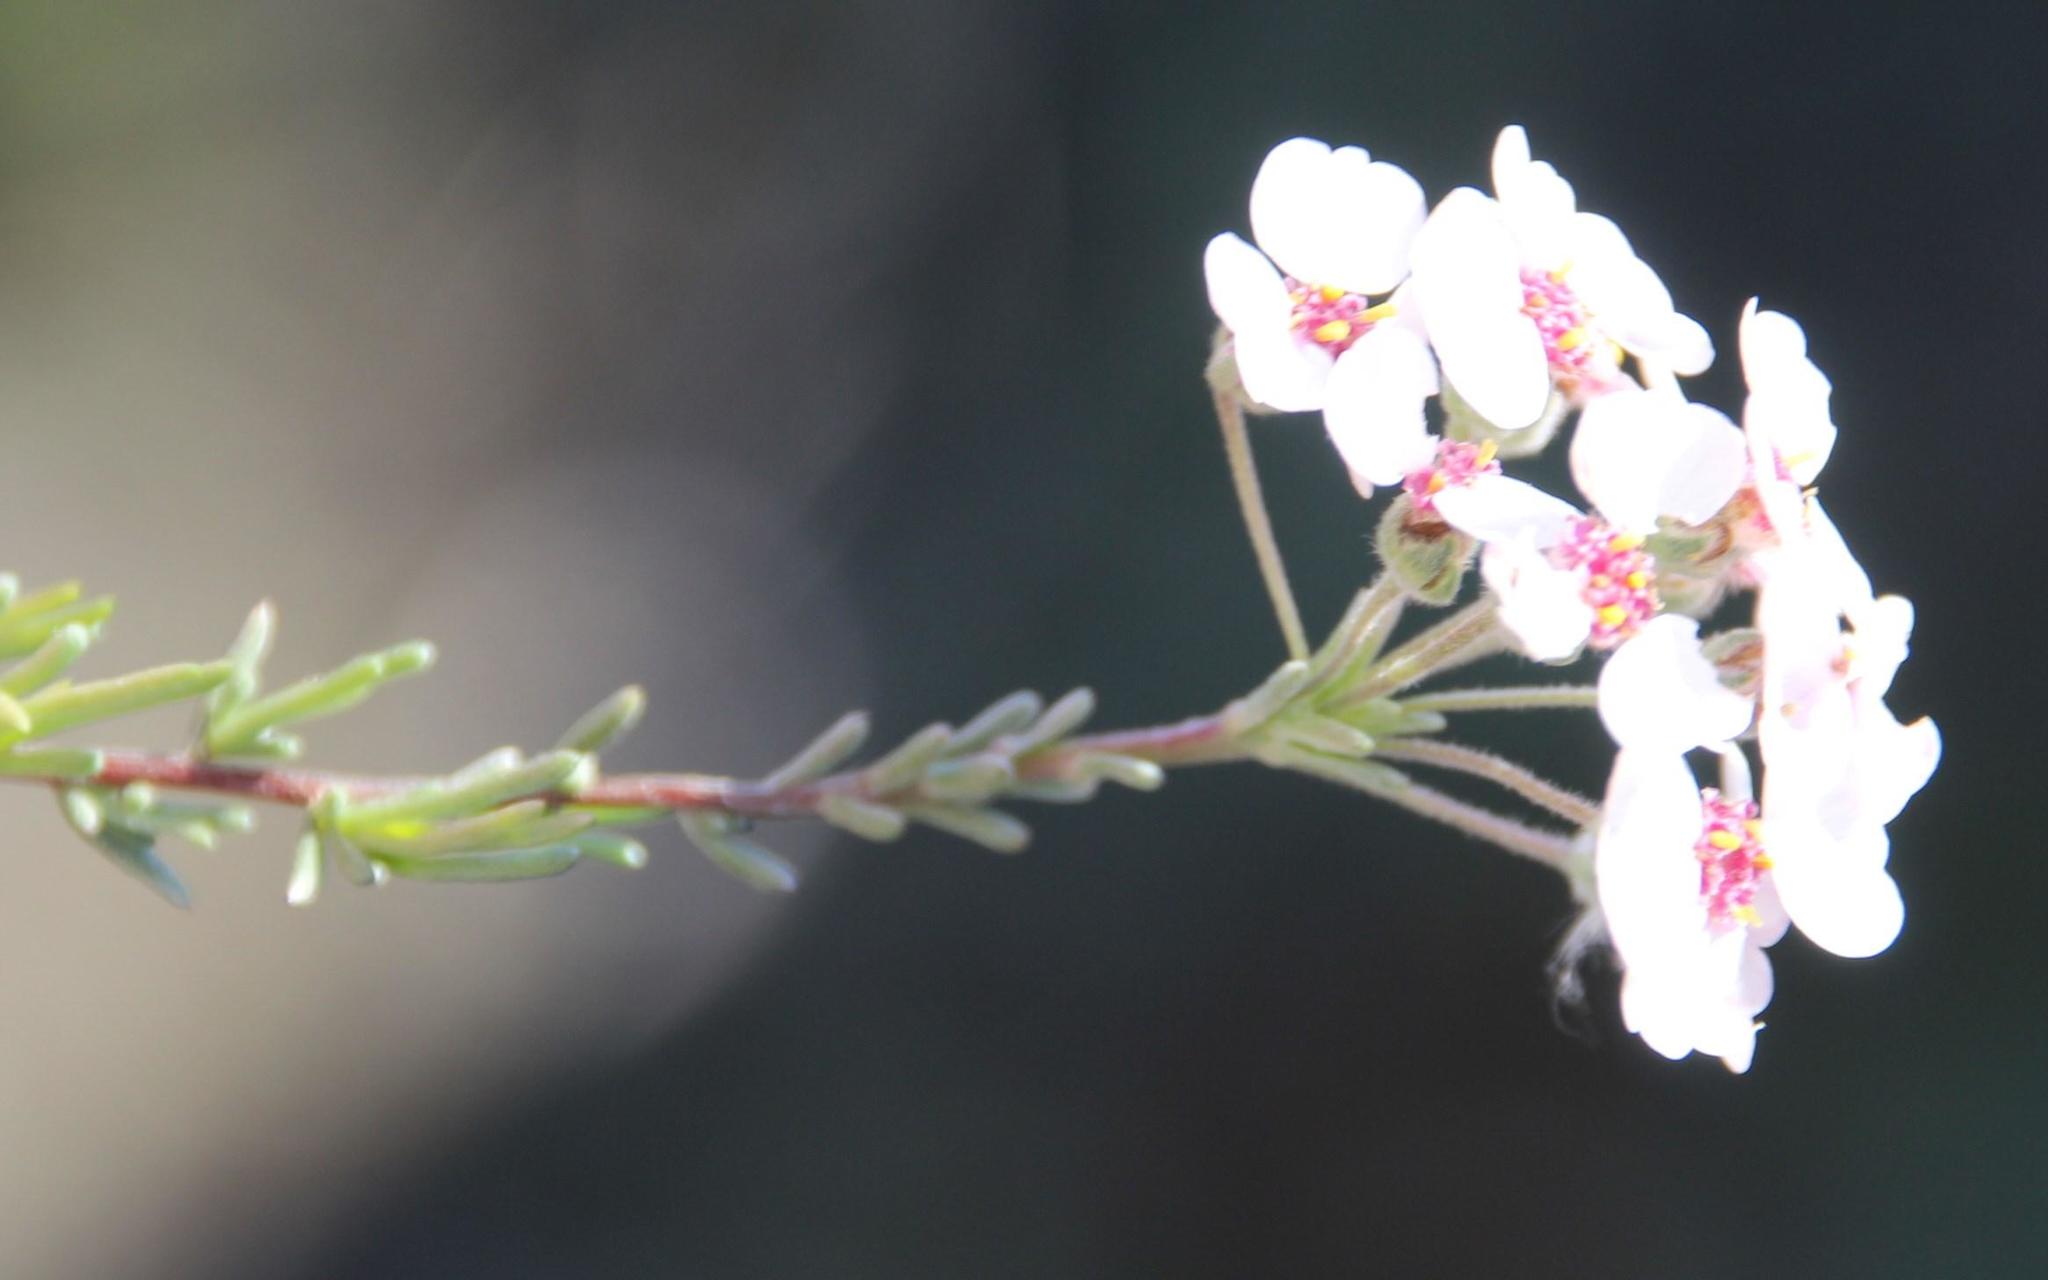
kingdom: Plantae
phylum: Tracheophyta
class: Magnoliopsida
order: Asterales
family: Asteraceae
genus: Eriocephalus
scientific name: Eriocephalus africanus
